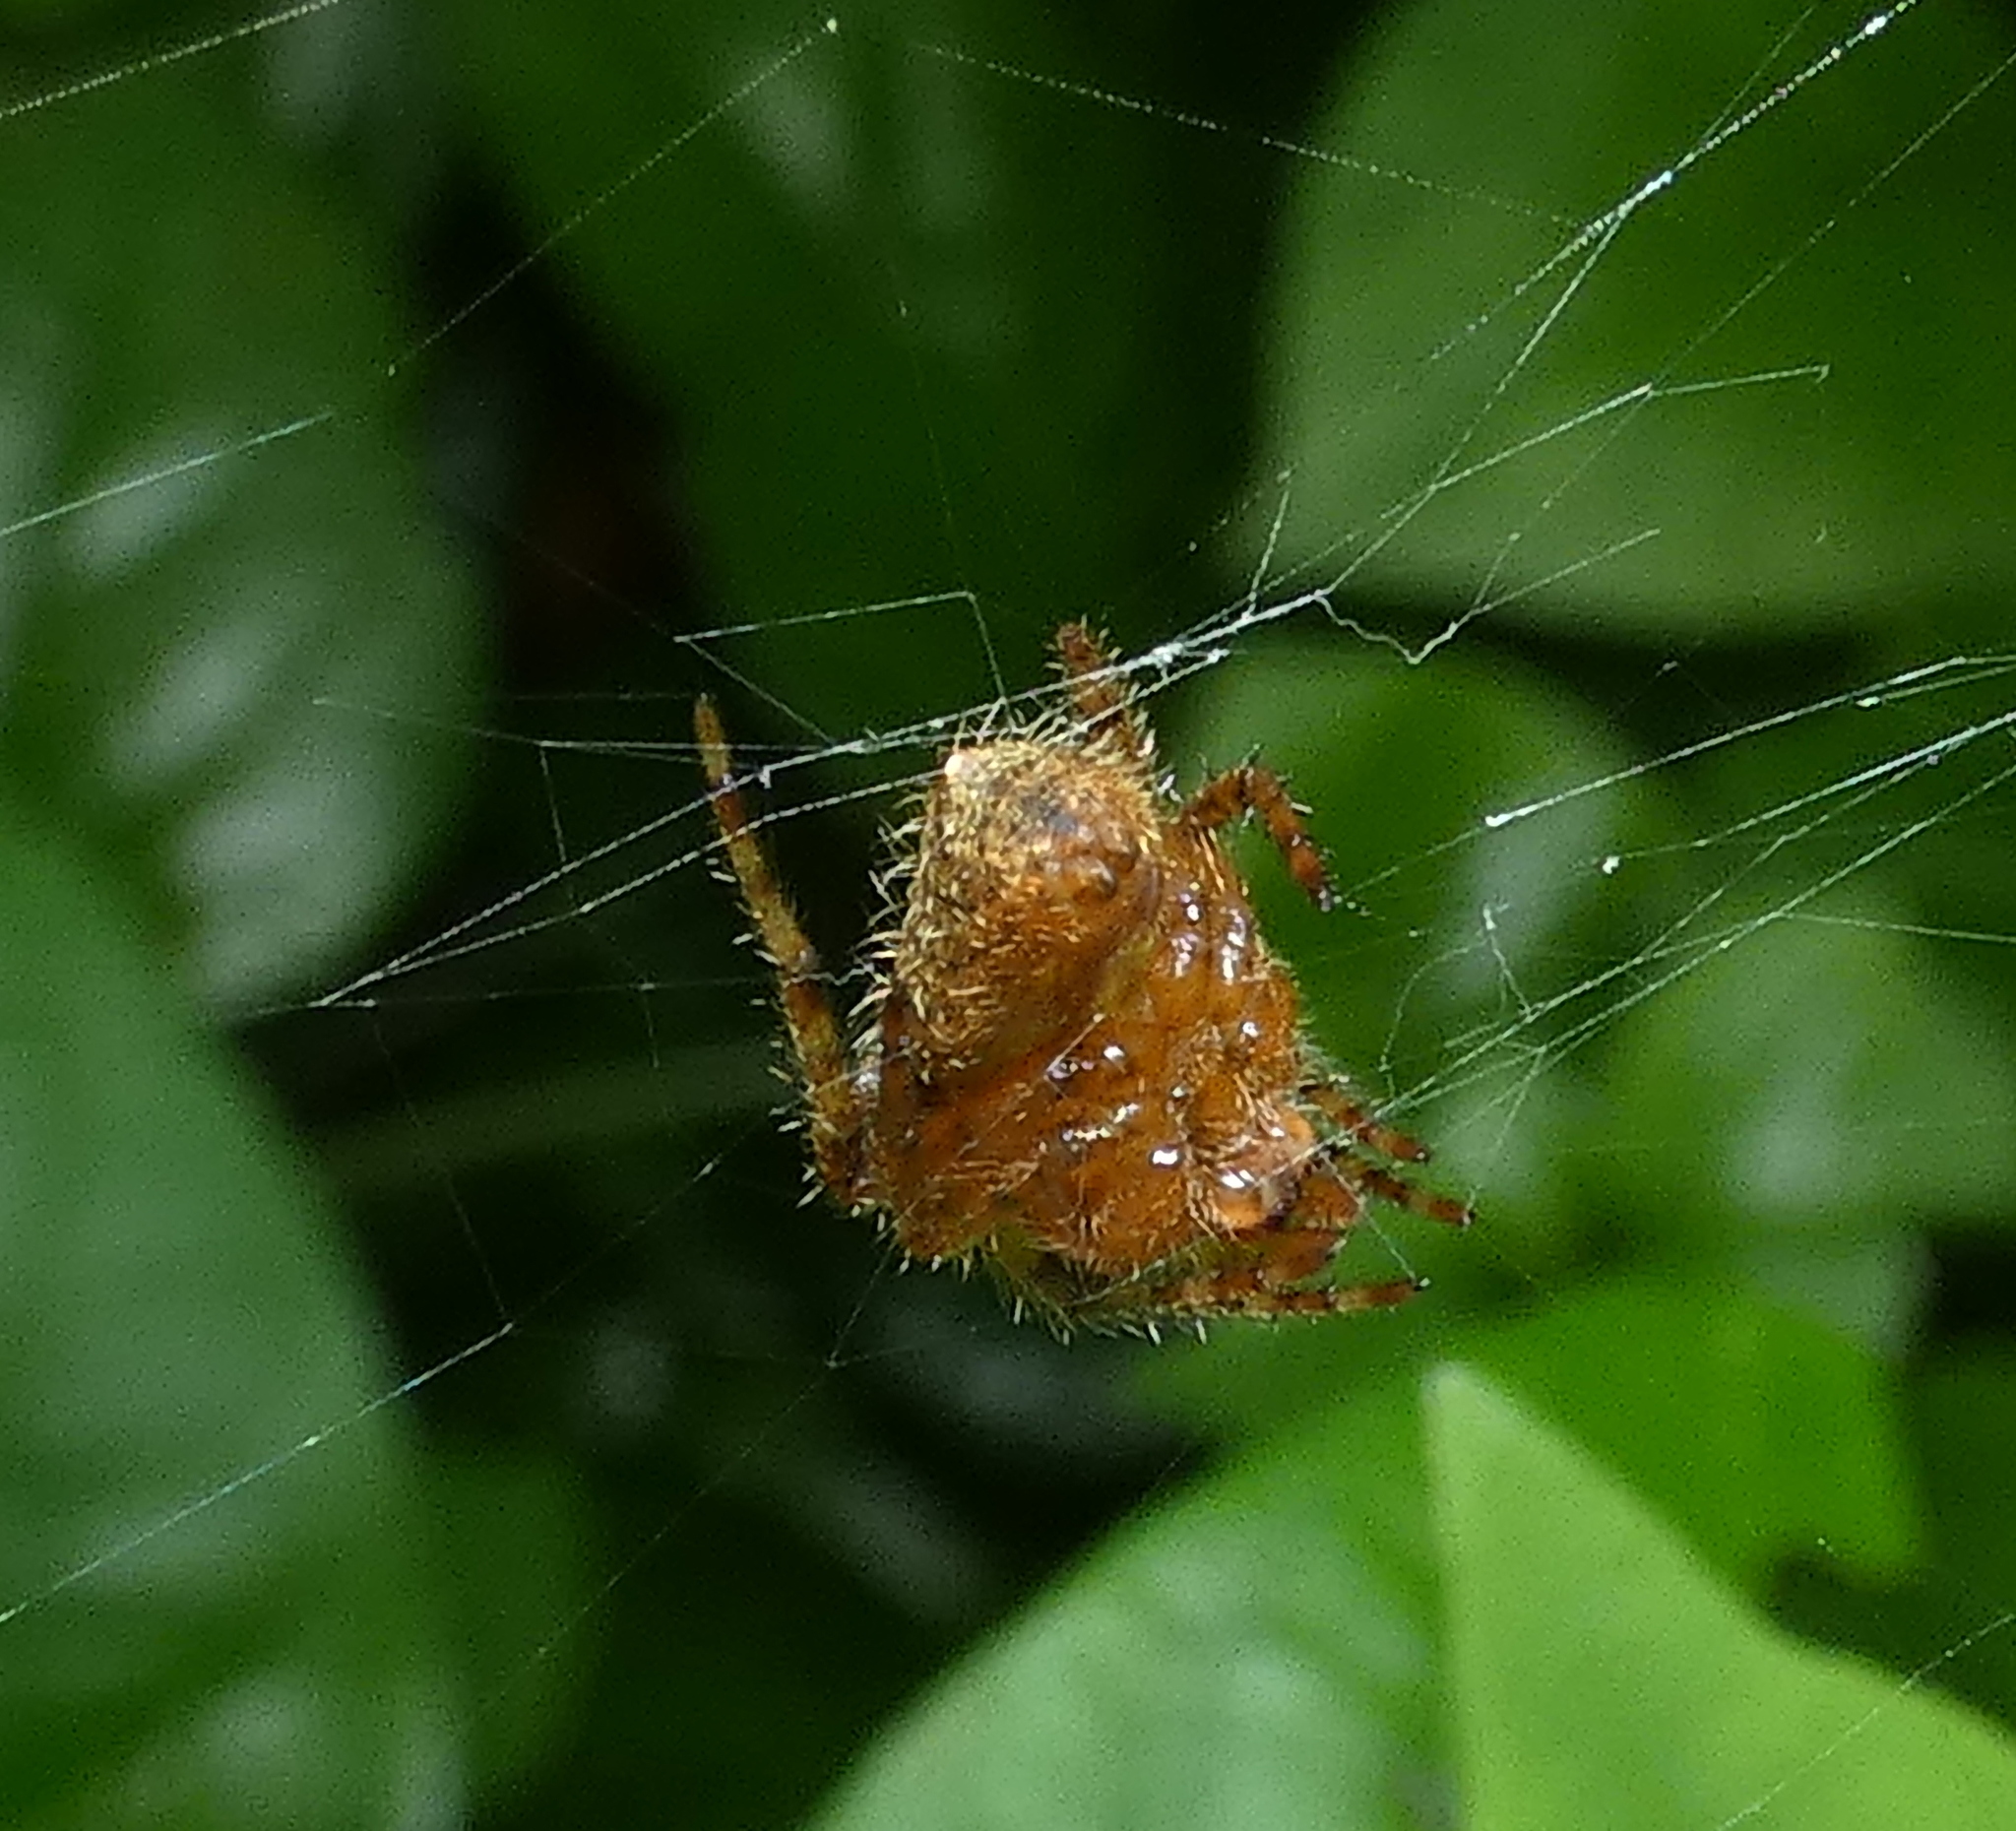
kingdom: Animalia
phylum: Arthropoda
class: Arachnida
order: Araneae
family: Araneidae
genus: Eriophora
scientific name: Eriophora edax
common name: Orb weavers
